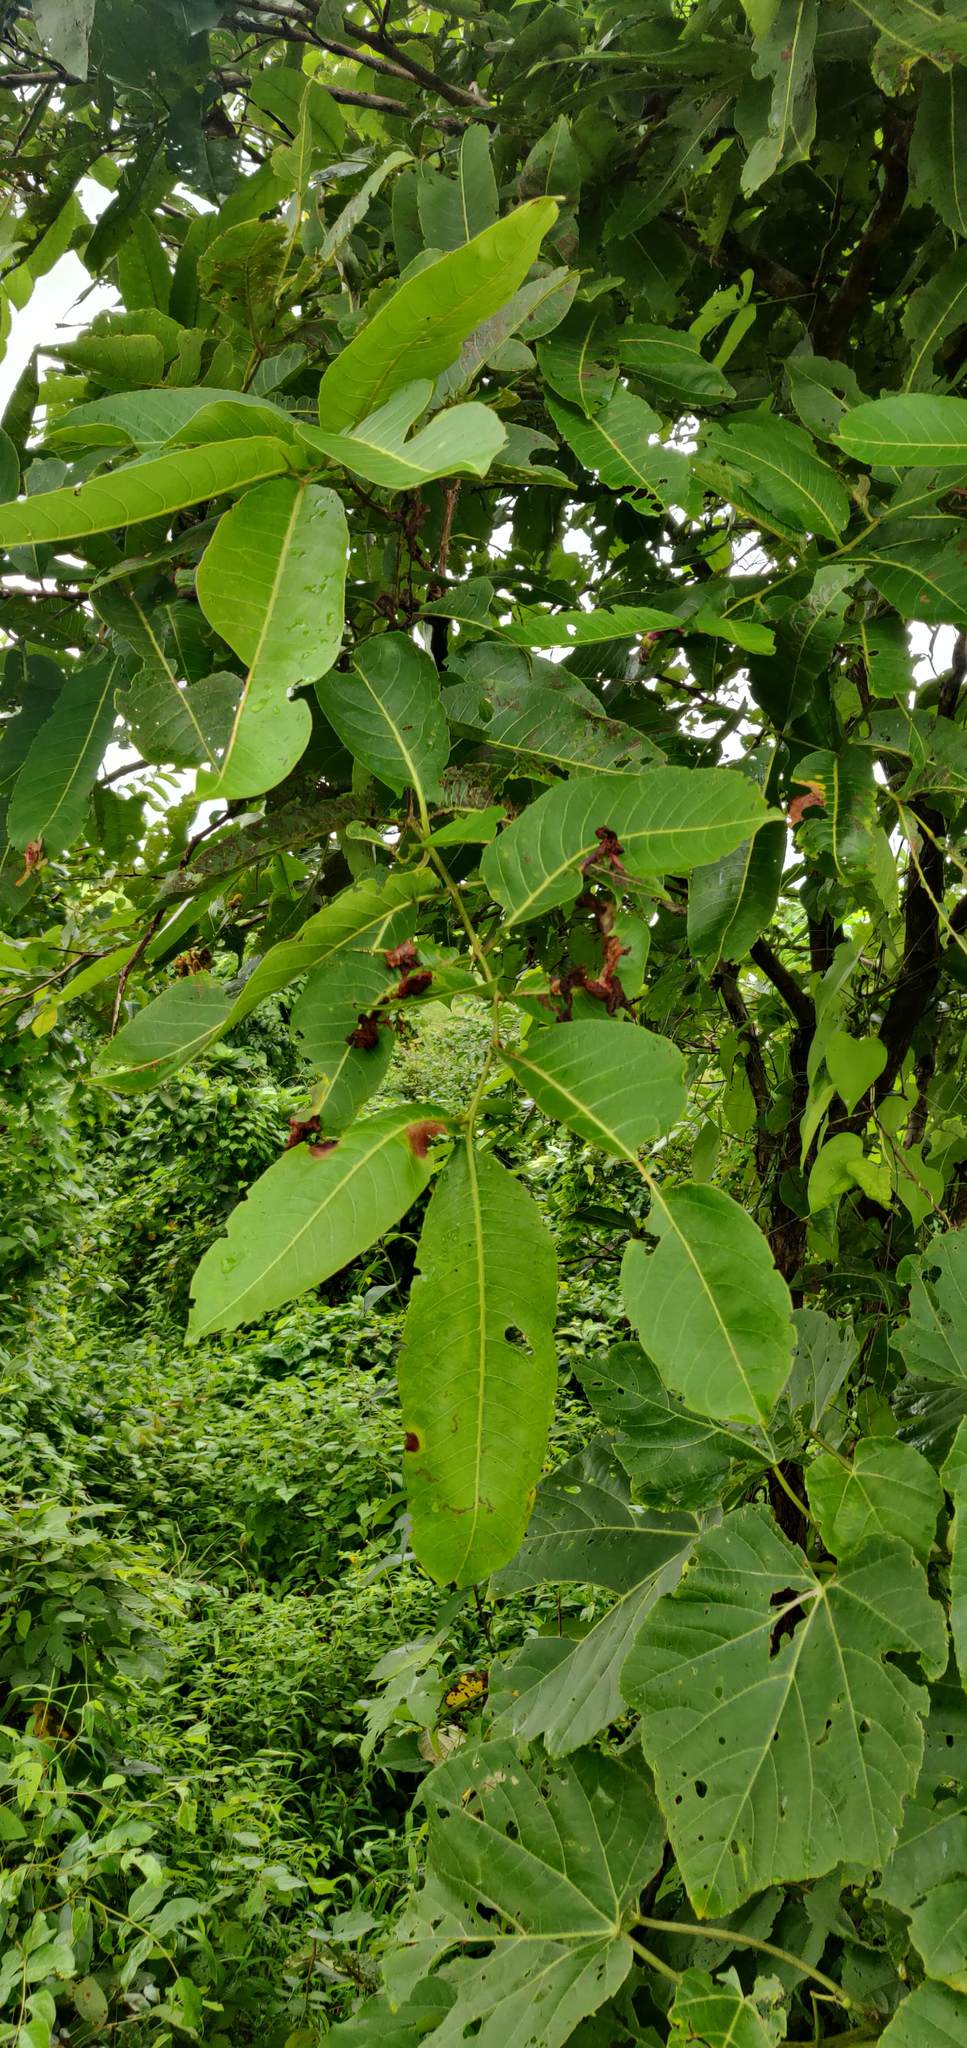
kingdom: Plantae
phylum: Tracheophyta
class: Magnoliopsida
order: Myrtales
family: Combretaceae
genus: Terminalia
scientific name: Terminalia elliptica
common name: Indian-laurel
